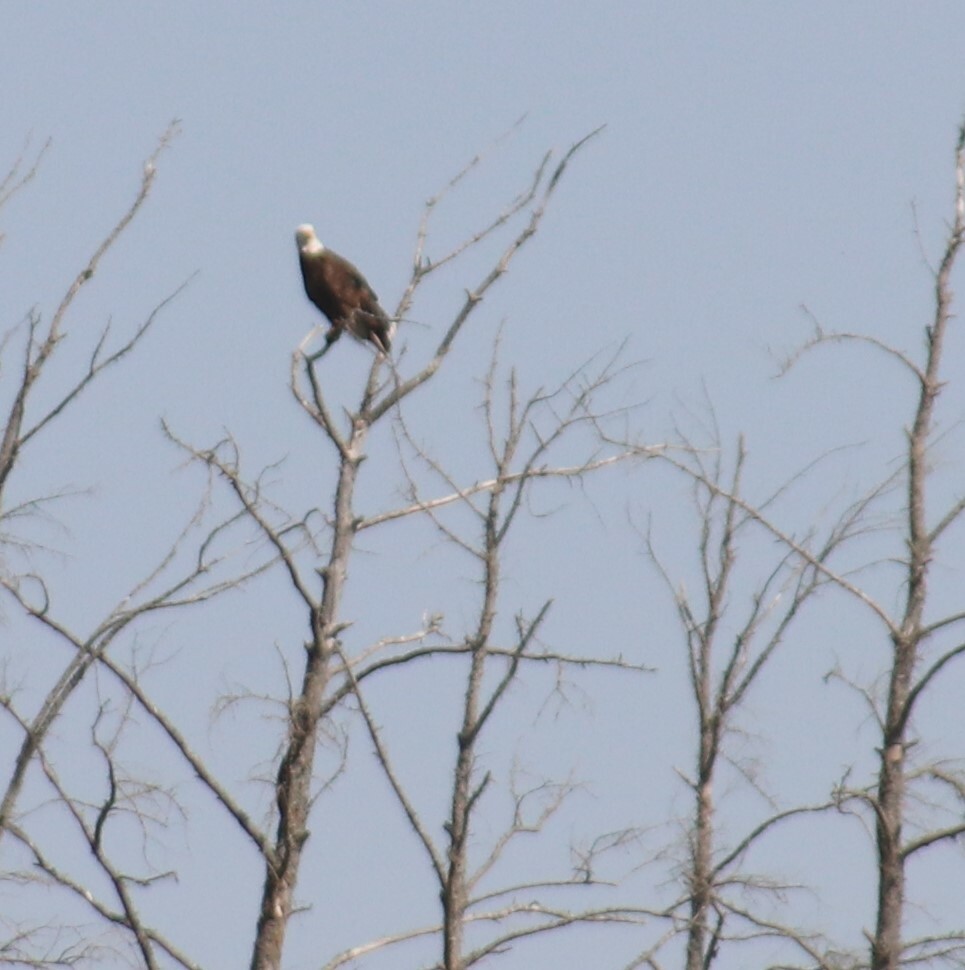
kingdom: Animalia
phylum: Chordata
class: Aves
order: Accipitriformes
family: Accipitridae
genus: Haliaeetus
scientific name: Haliaeetus leucocephalus
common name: Bald eagle
